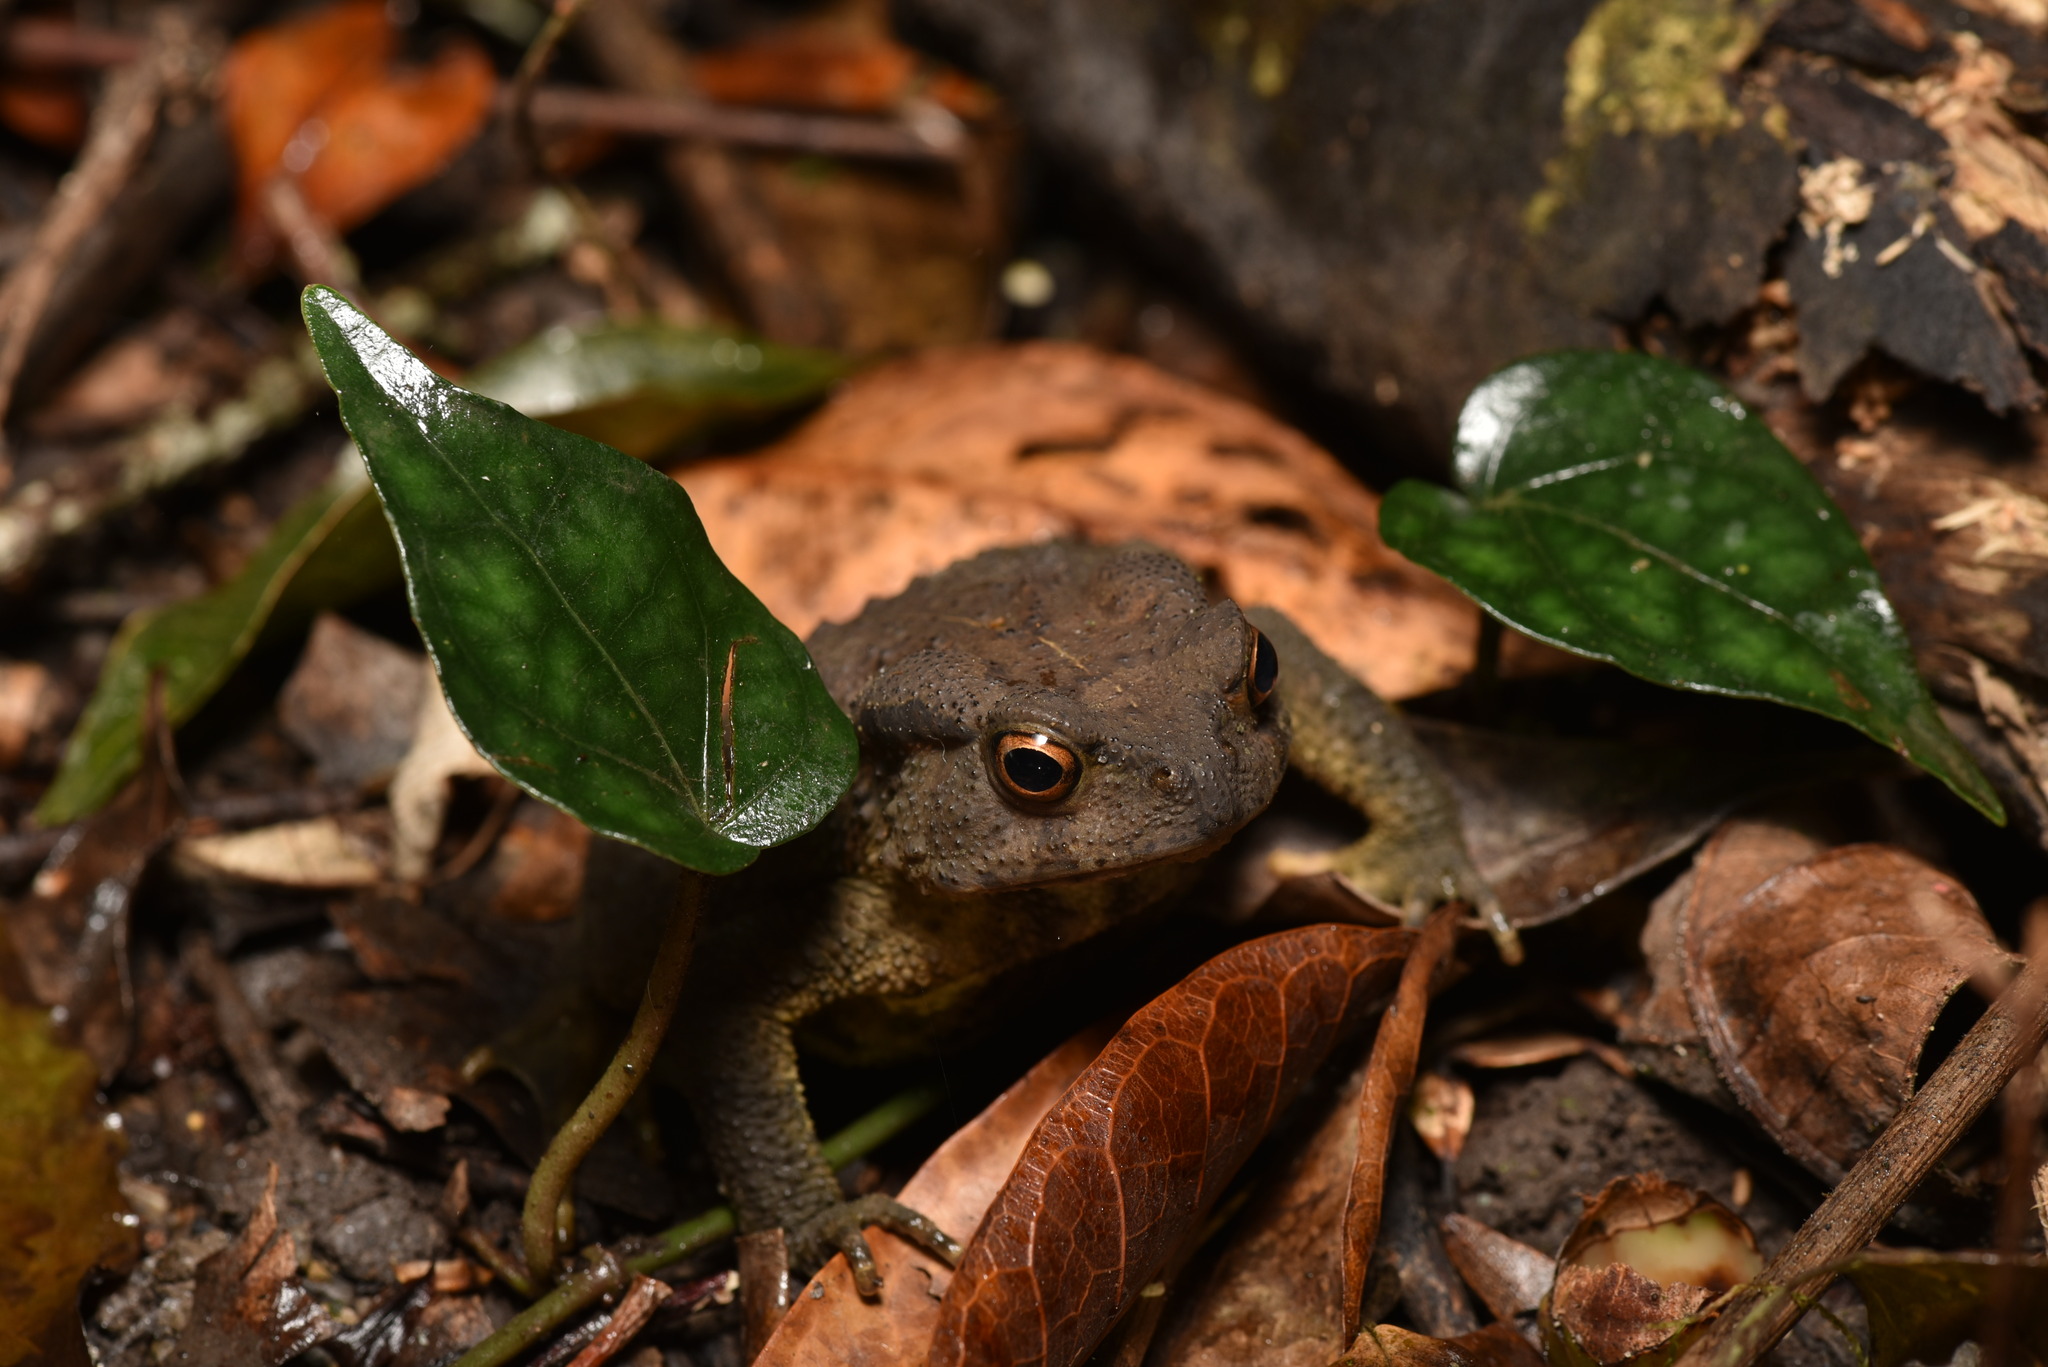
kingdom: Animalia
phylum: Chordata
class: Amphibia
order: Anura
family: Bufonidae
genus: Bufo
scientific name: Bufo bankorensis
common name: Bankor toad
